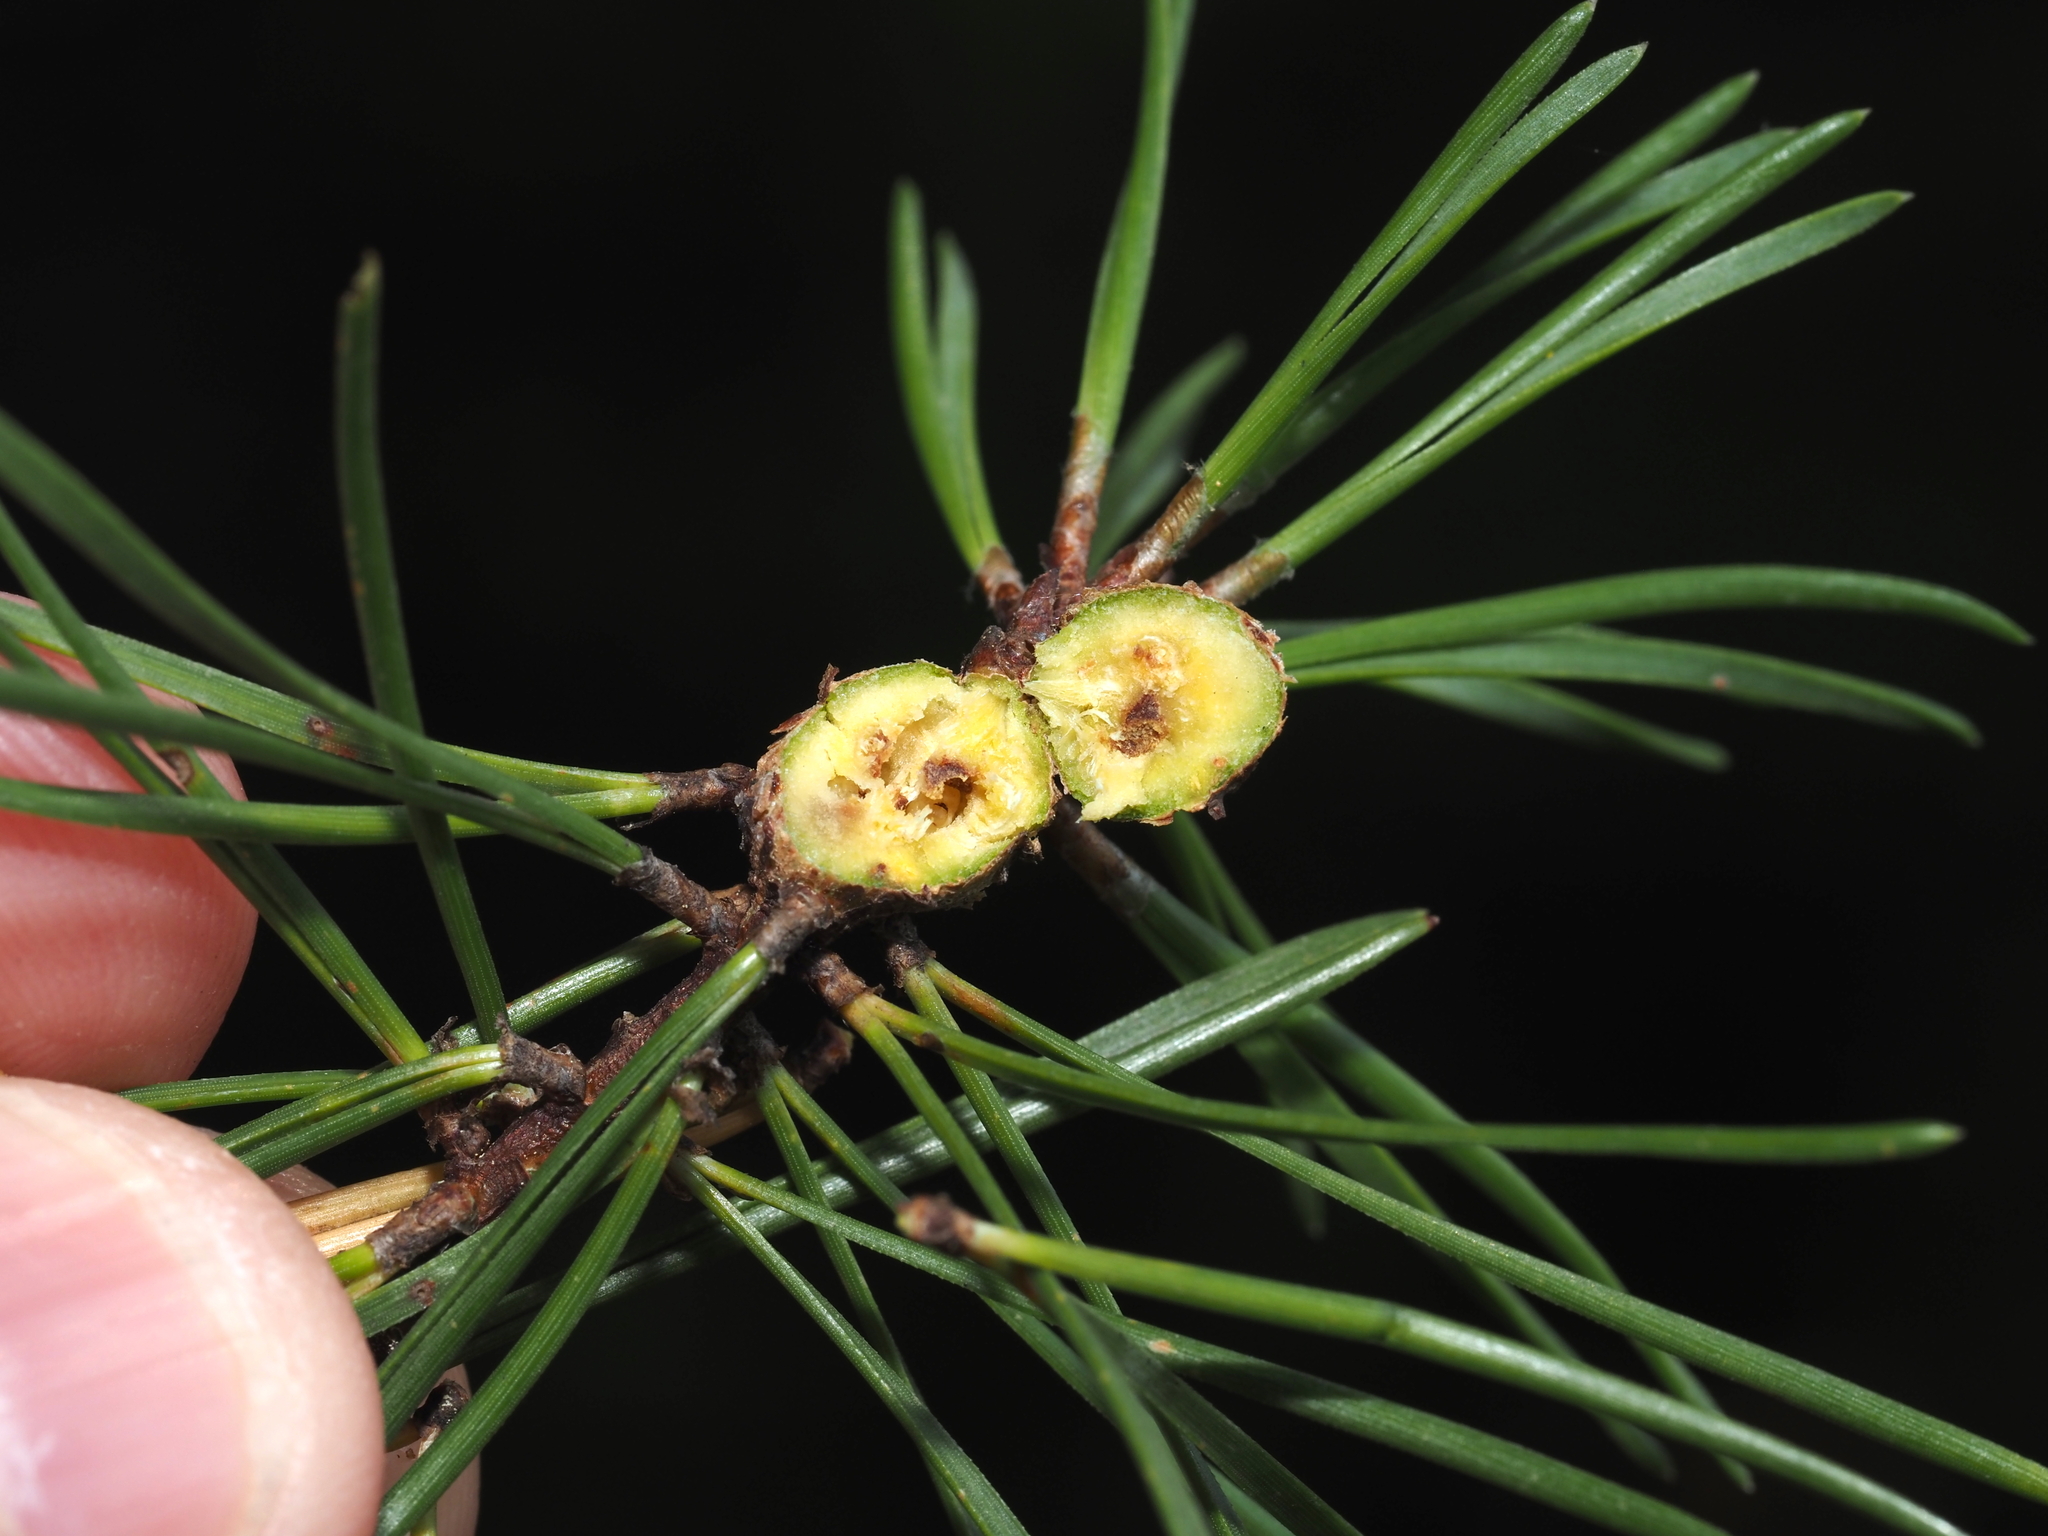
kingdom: Animalia
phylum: Arthropoda
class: Insecta
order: Coleoptera
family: Brentidae
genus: Podapion
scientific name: Podapion gallicola
